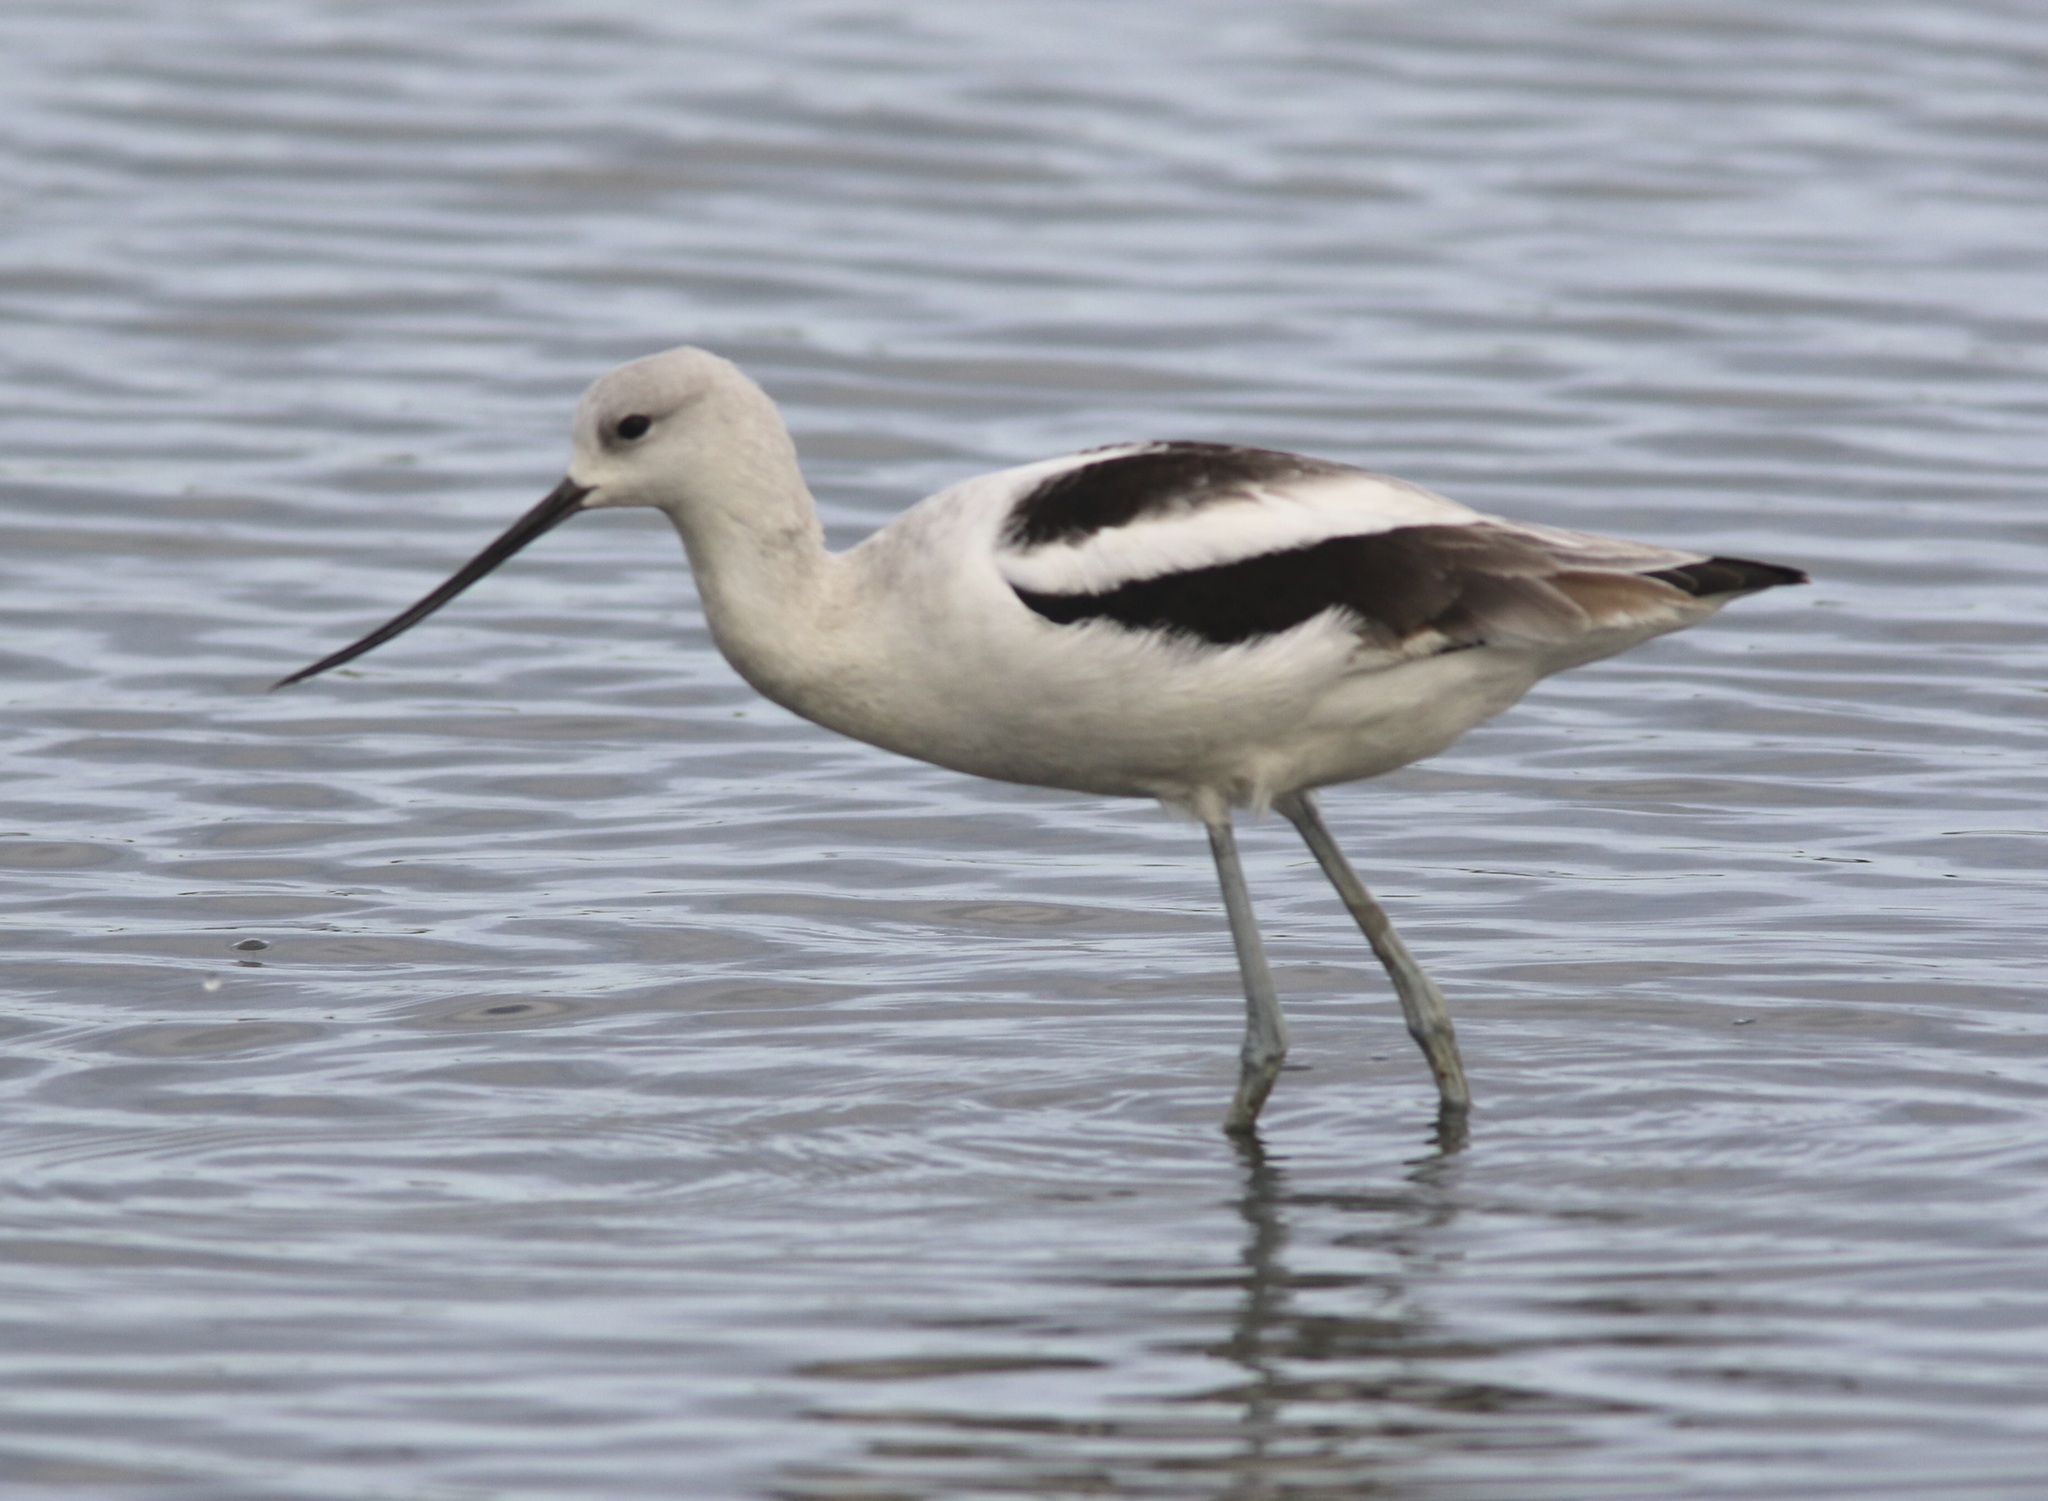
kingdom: Animalia
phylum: Chordata
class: Aves
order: Charadriiformes
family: Recurvirostridae
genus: Recurvirostra
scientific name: Recurvirostra americana
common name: American avocet
